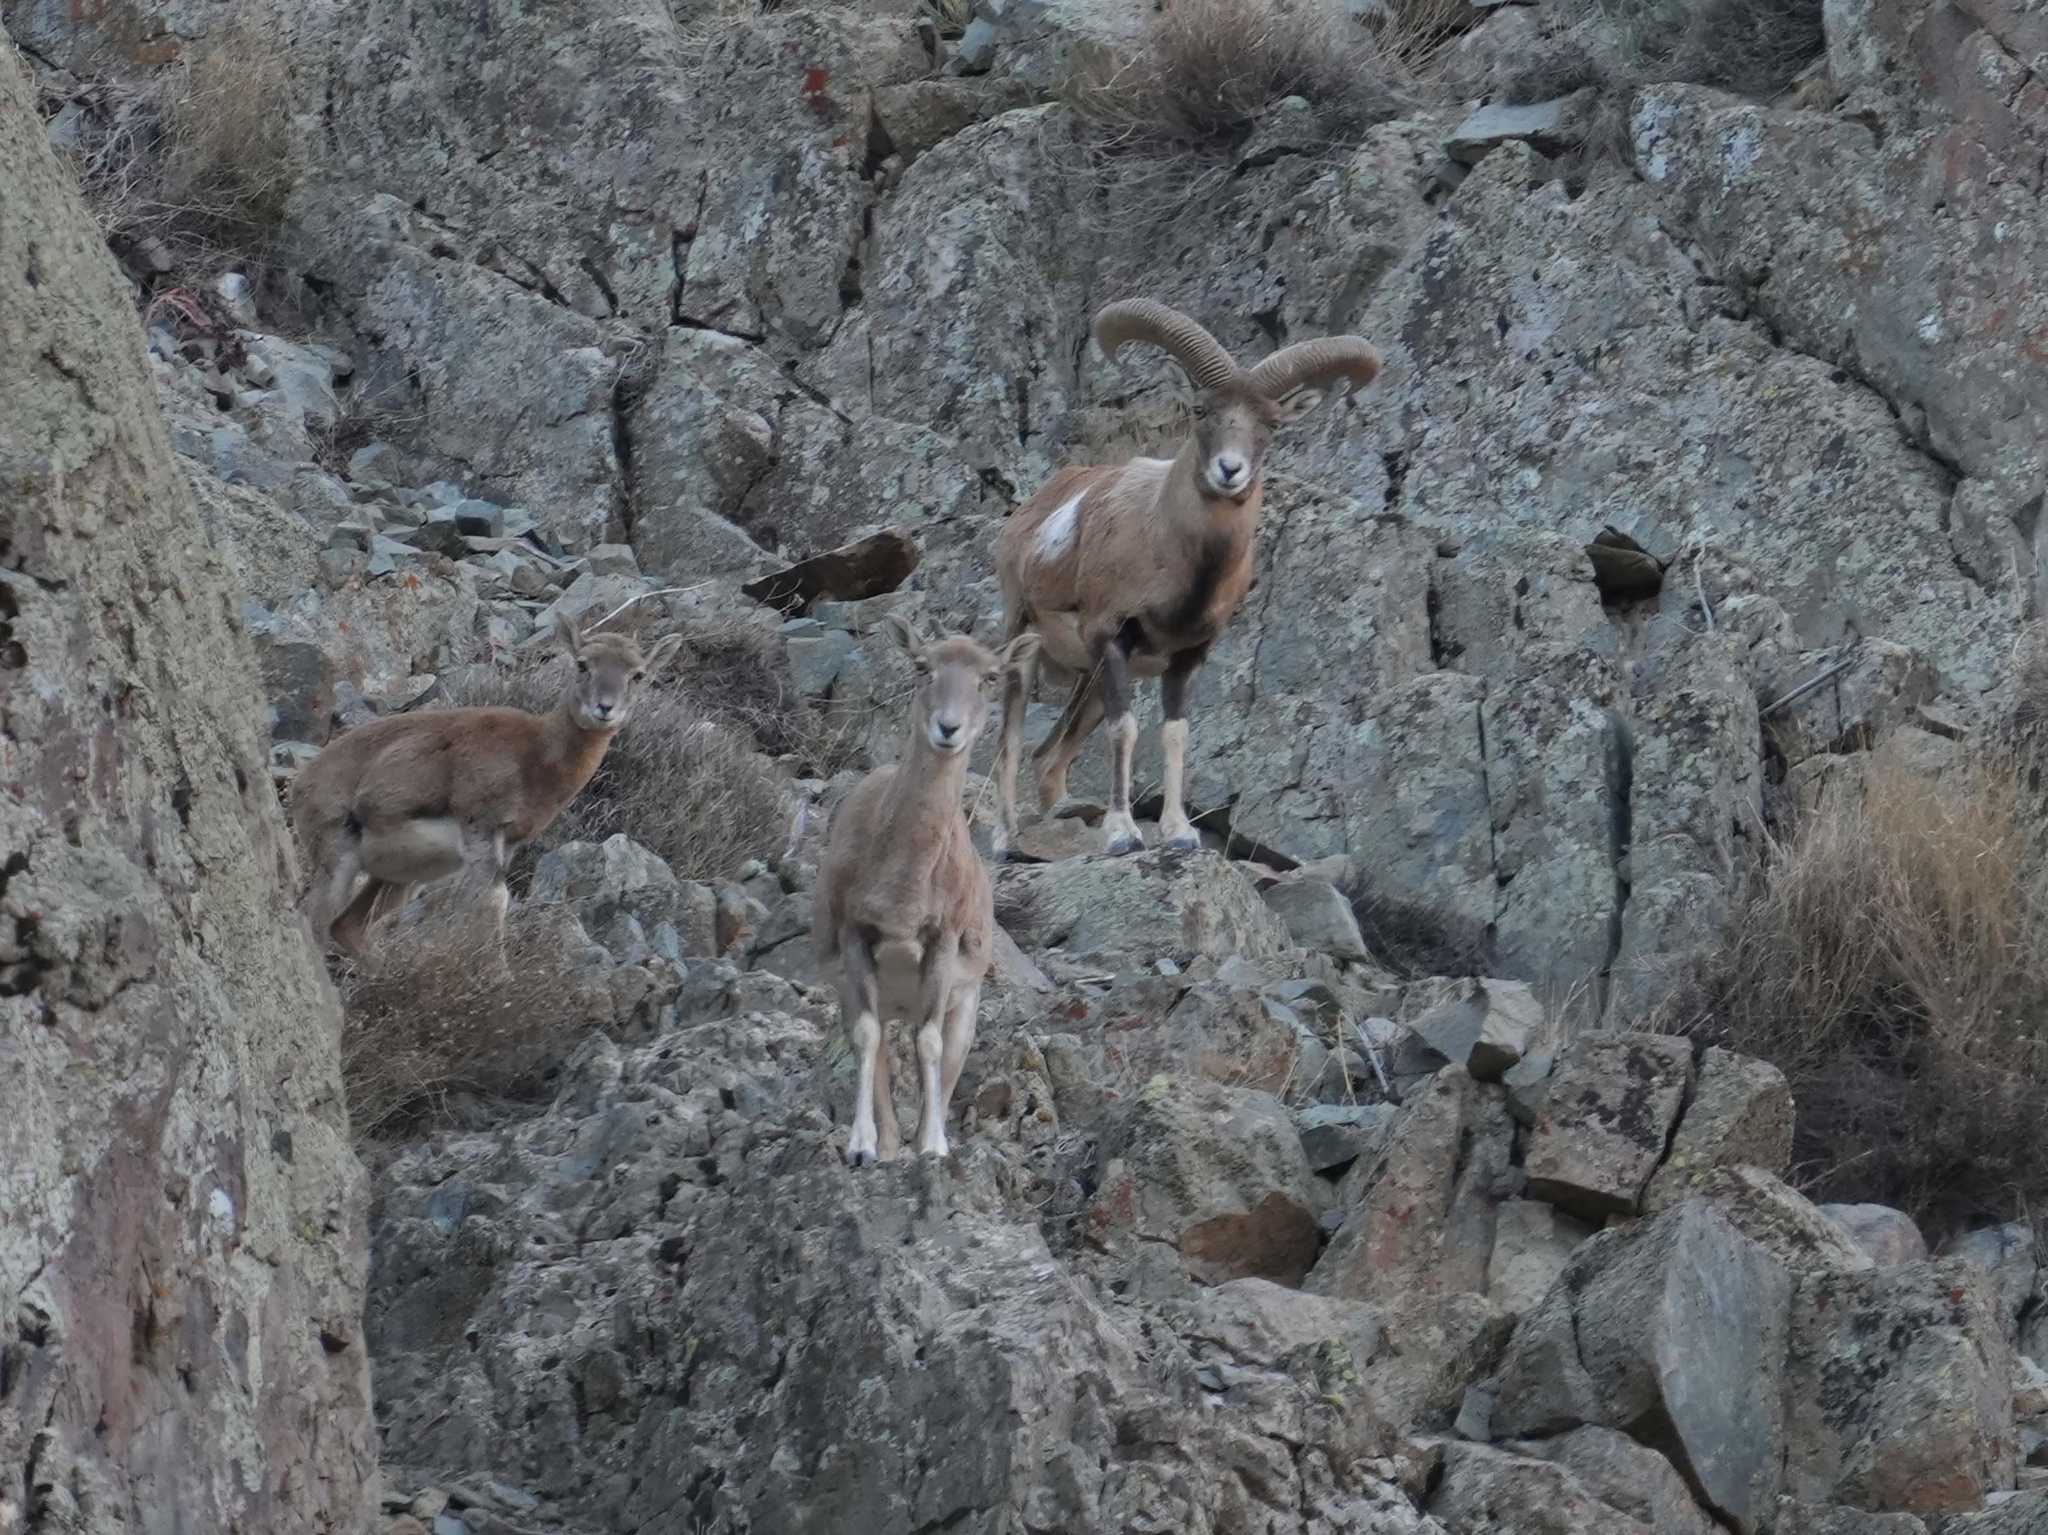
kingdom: Animalia
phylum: Chordata
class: Mammalia
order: Artiodactyla
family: Bovidae
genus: Ovis
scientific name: Ovis gmelini
